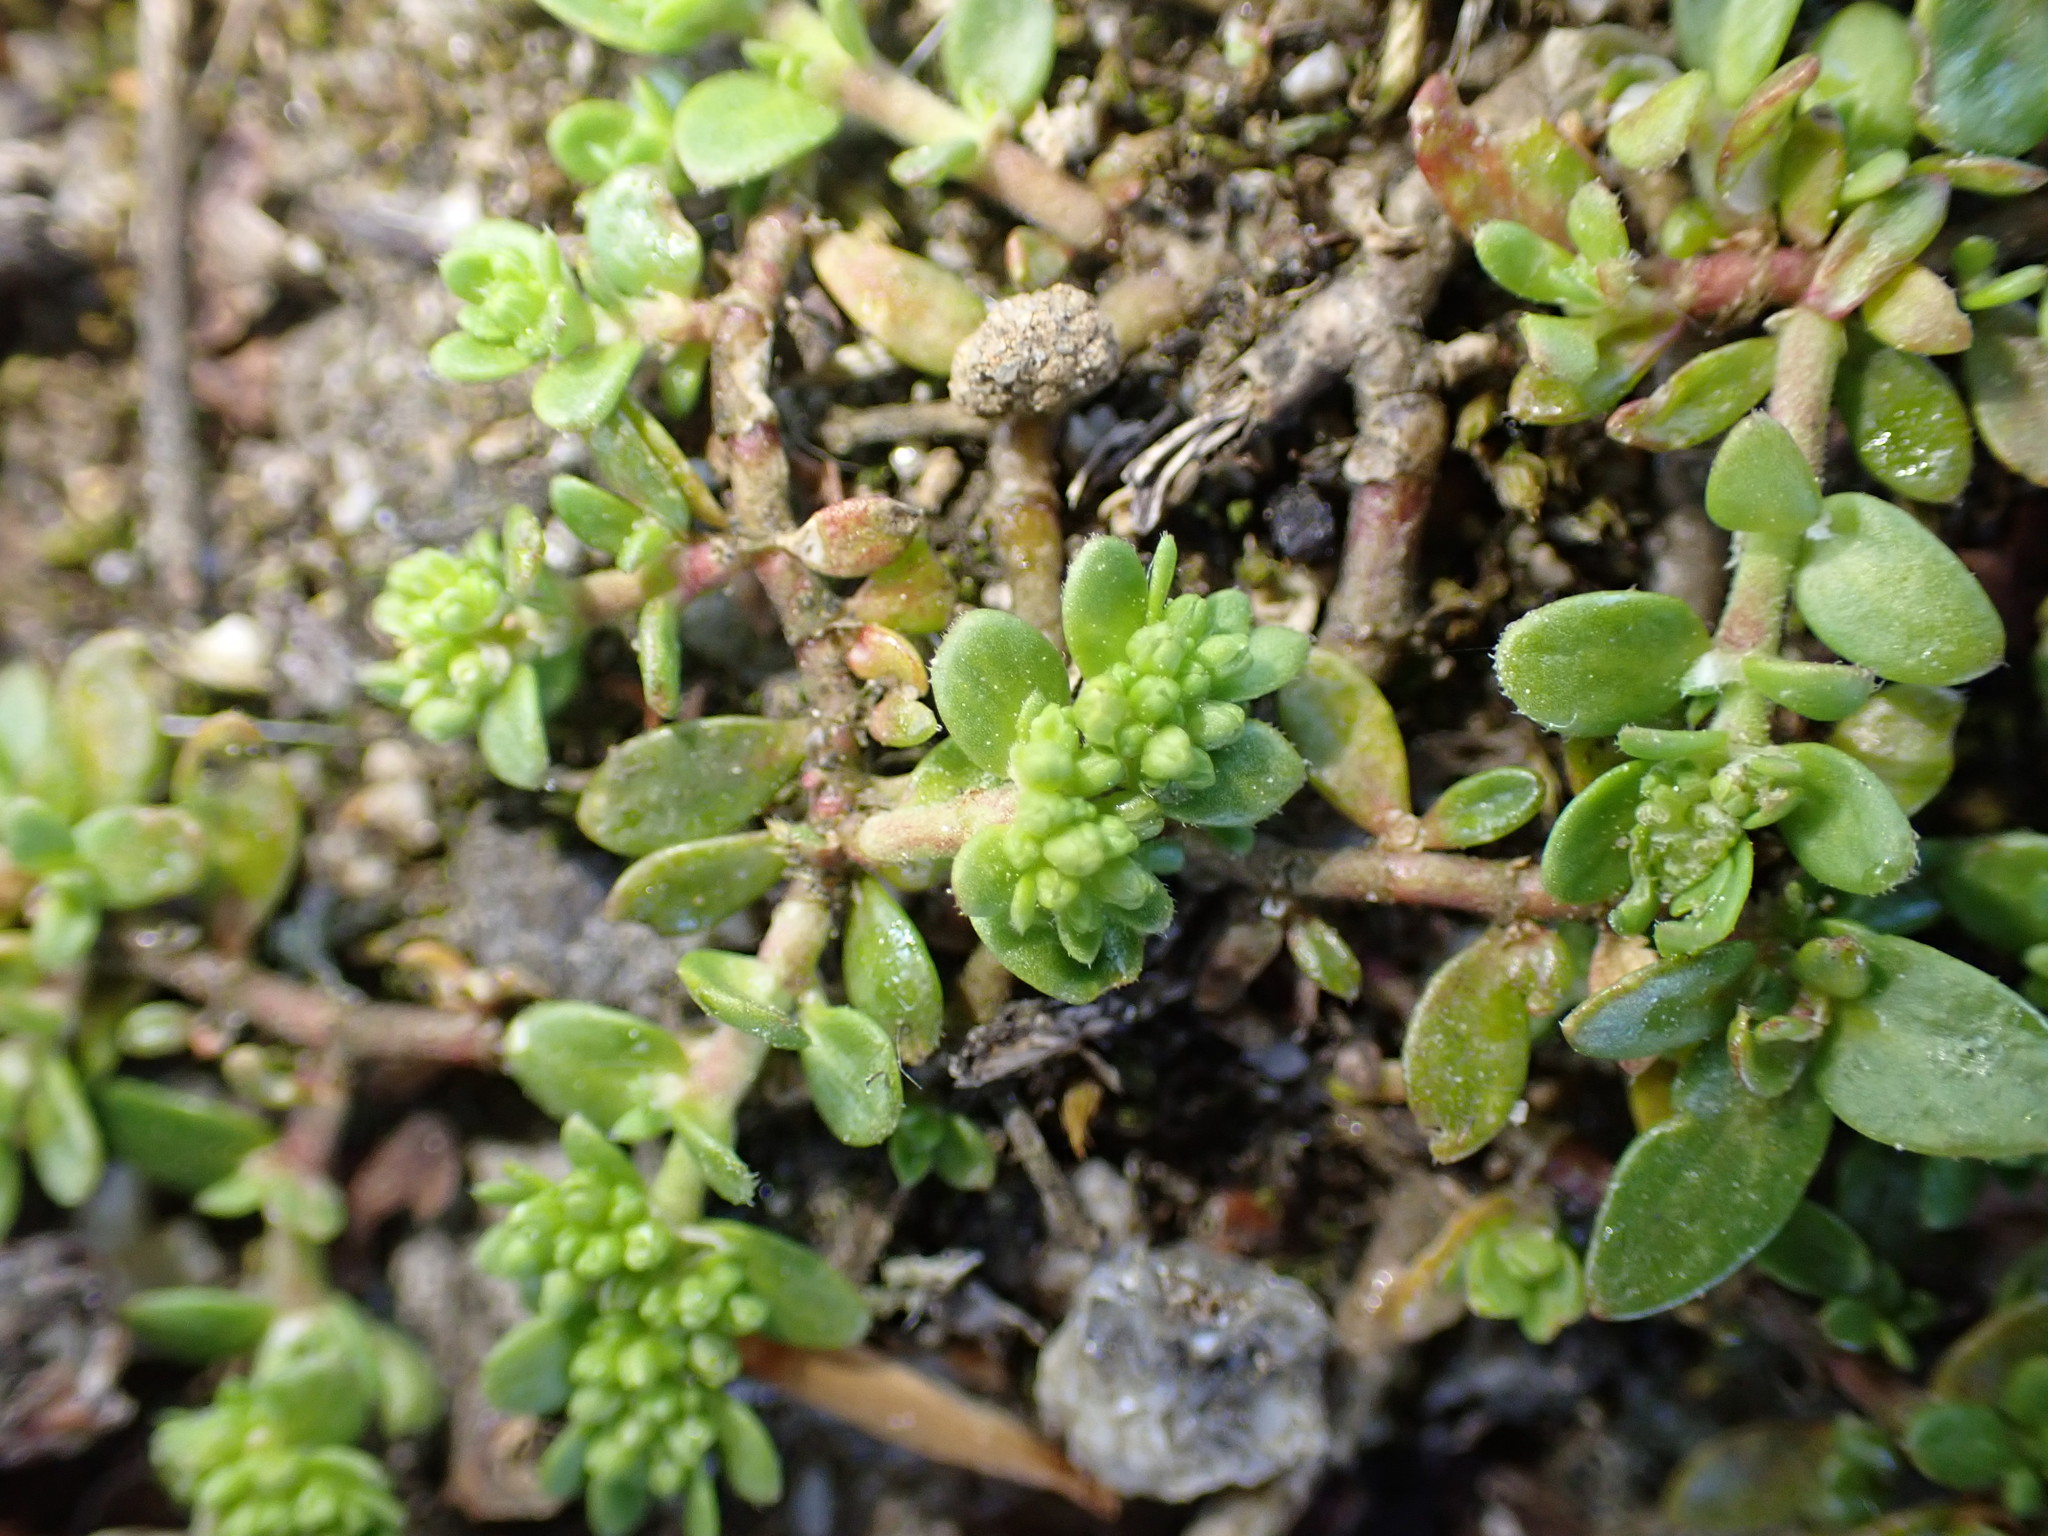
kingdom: Plantae
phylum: Tracheophyta
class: Magnoliopsida
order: Caryophyllales
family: Caryophyllaceae
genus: Herniaria
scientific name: Herniaria glabra
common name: Smooth rupturewort
